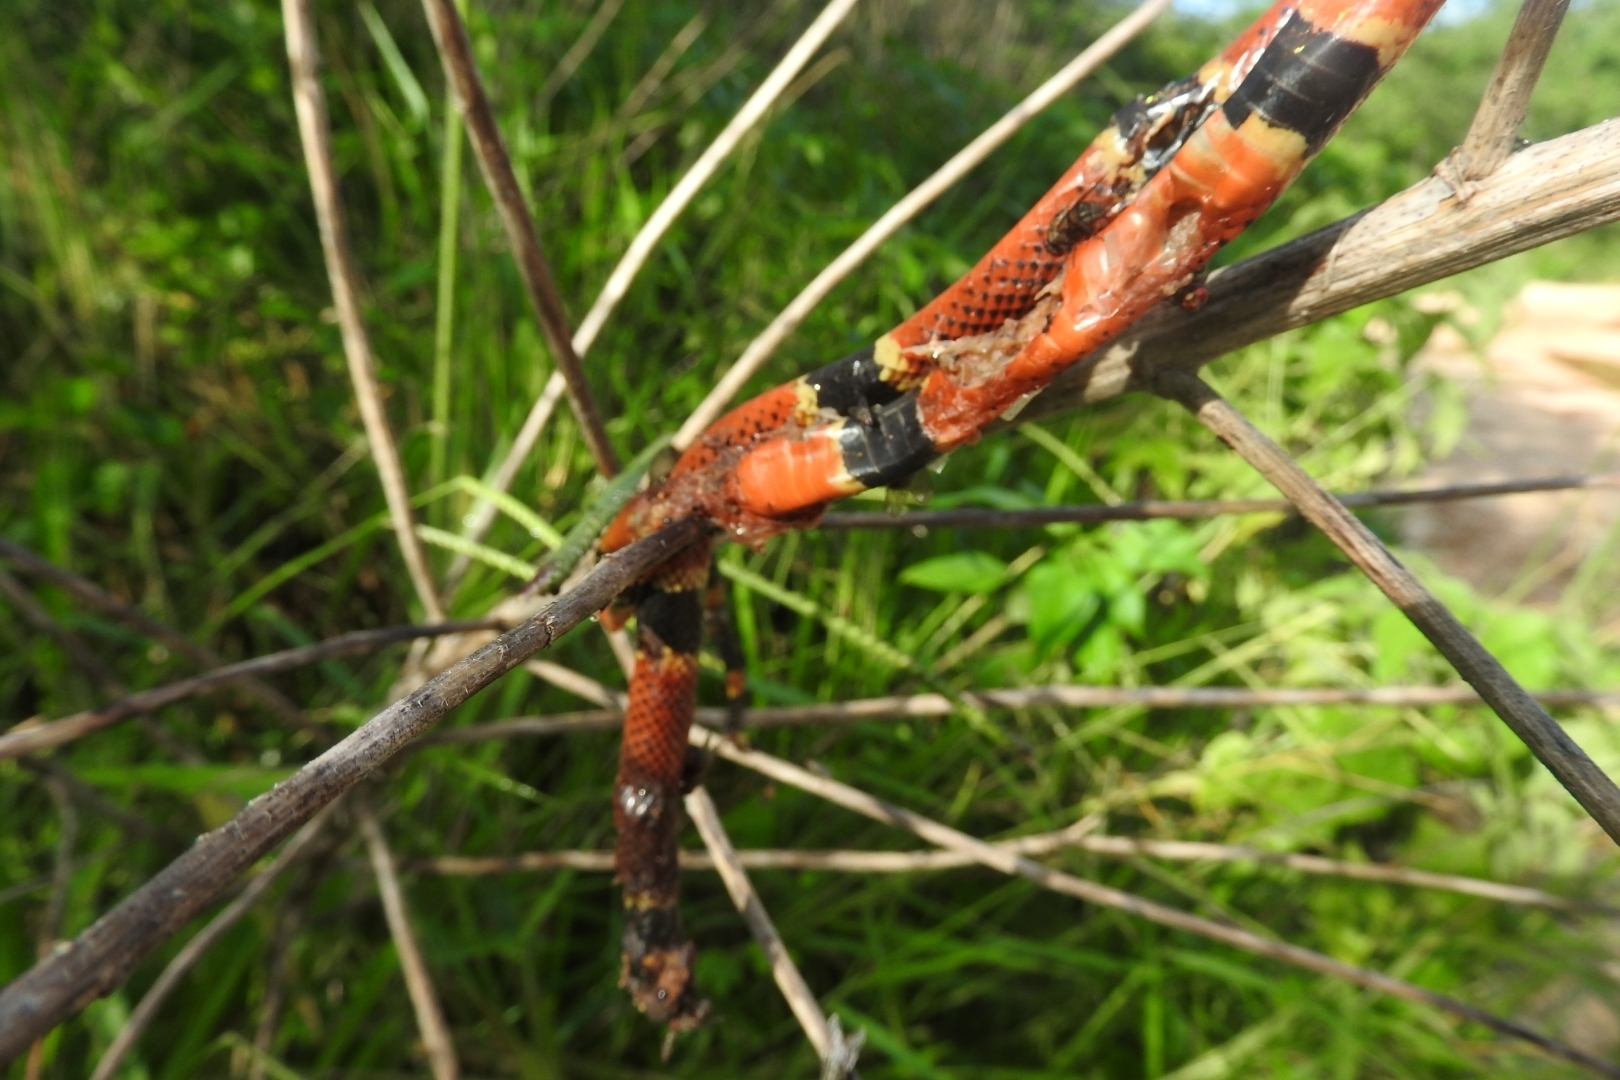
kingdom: Animalia
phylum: Chordata
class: Squamata
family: Elapidae
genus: Micrurus
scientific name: Micrurus diastema
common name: Diastema coral snake
